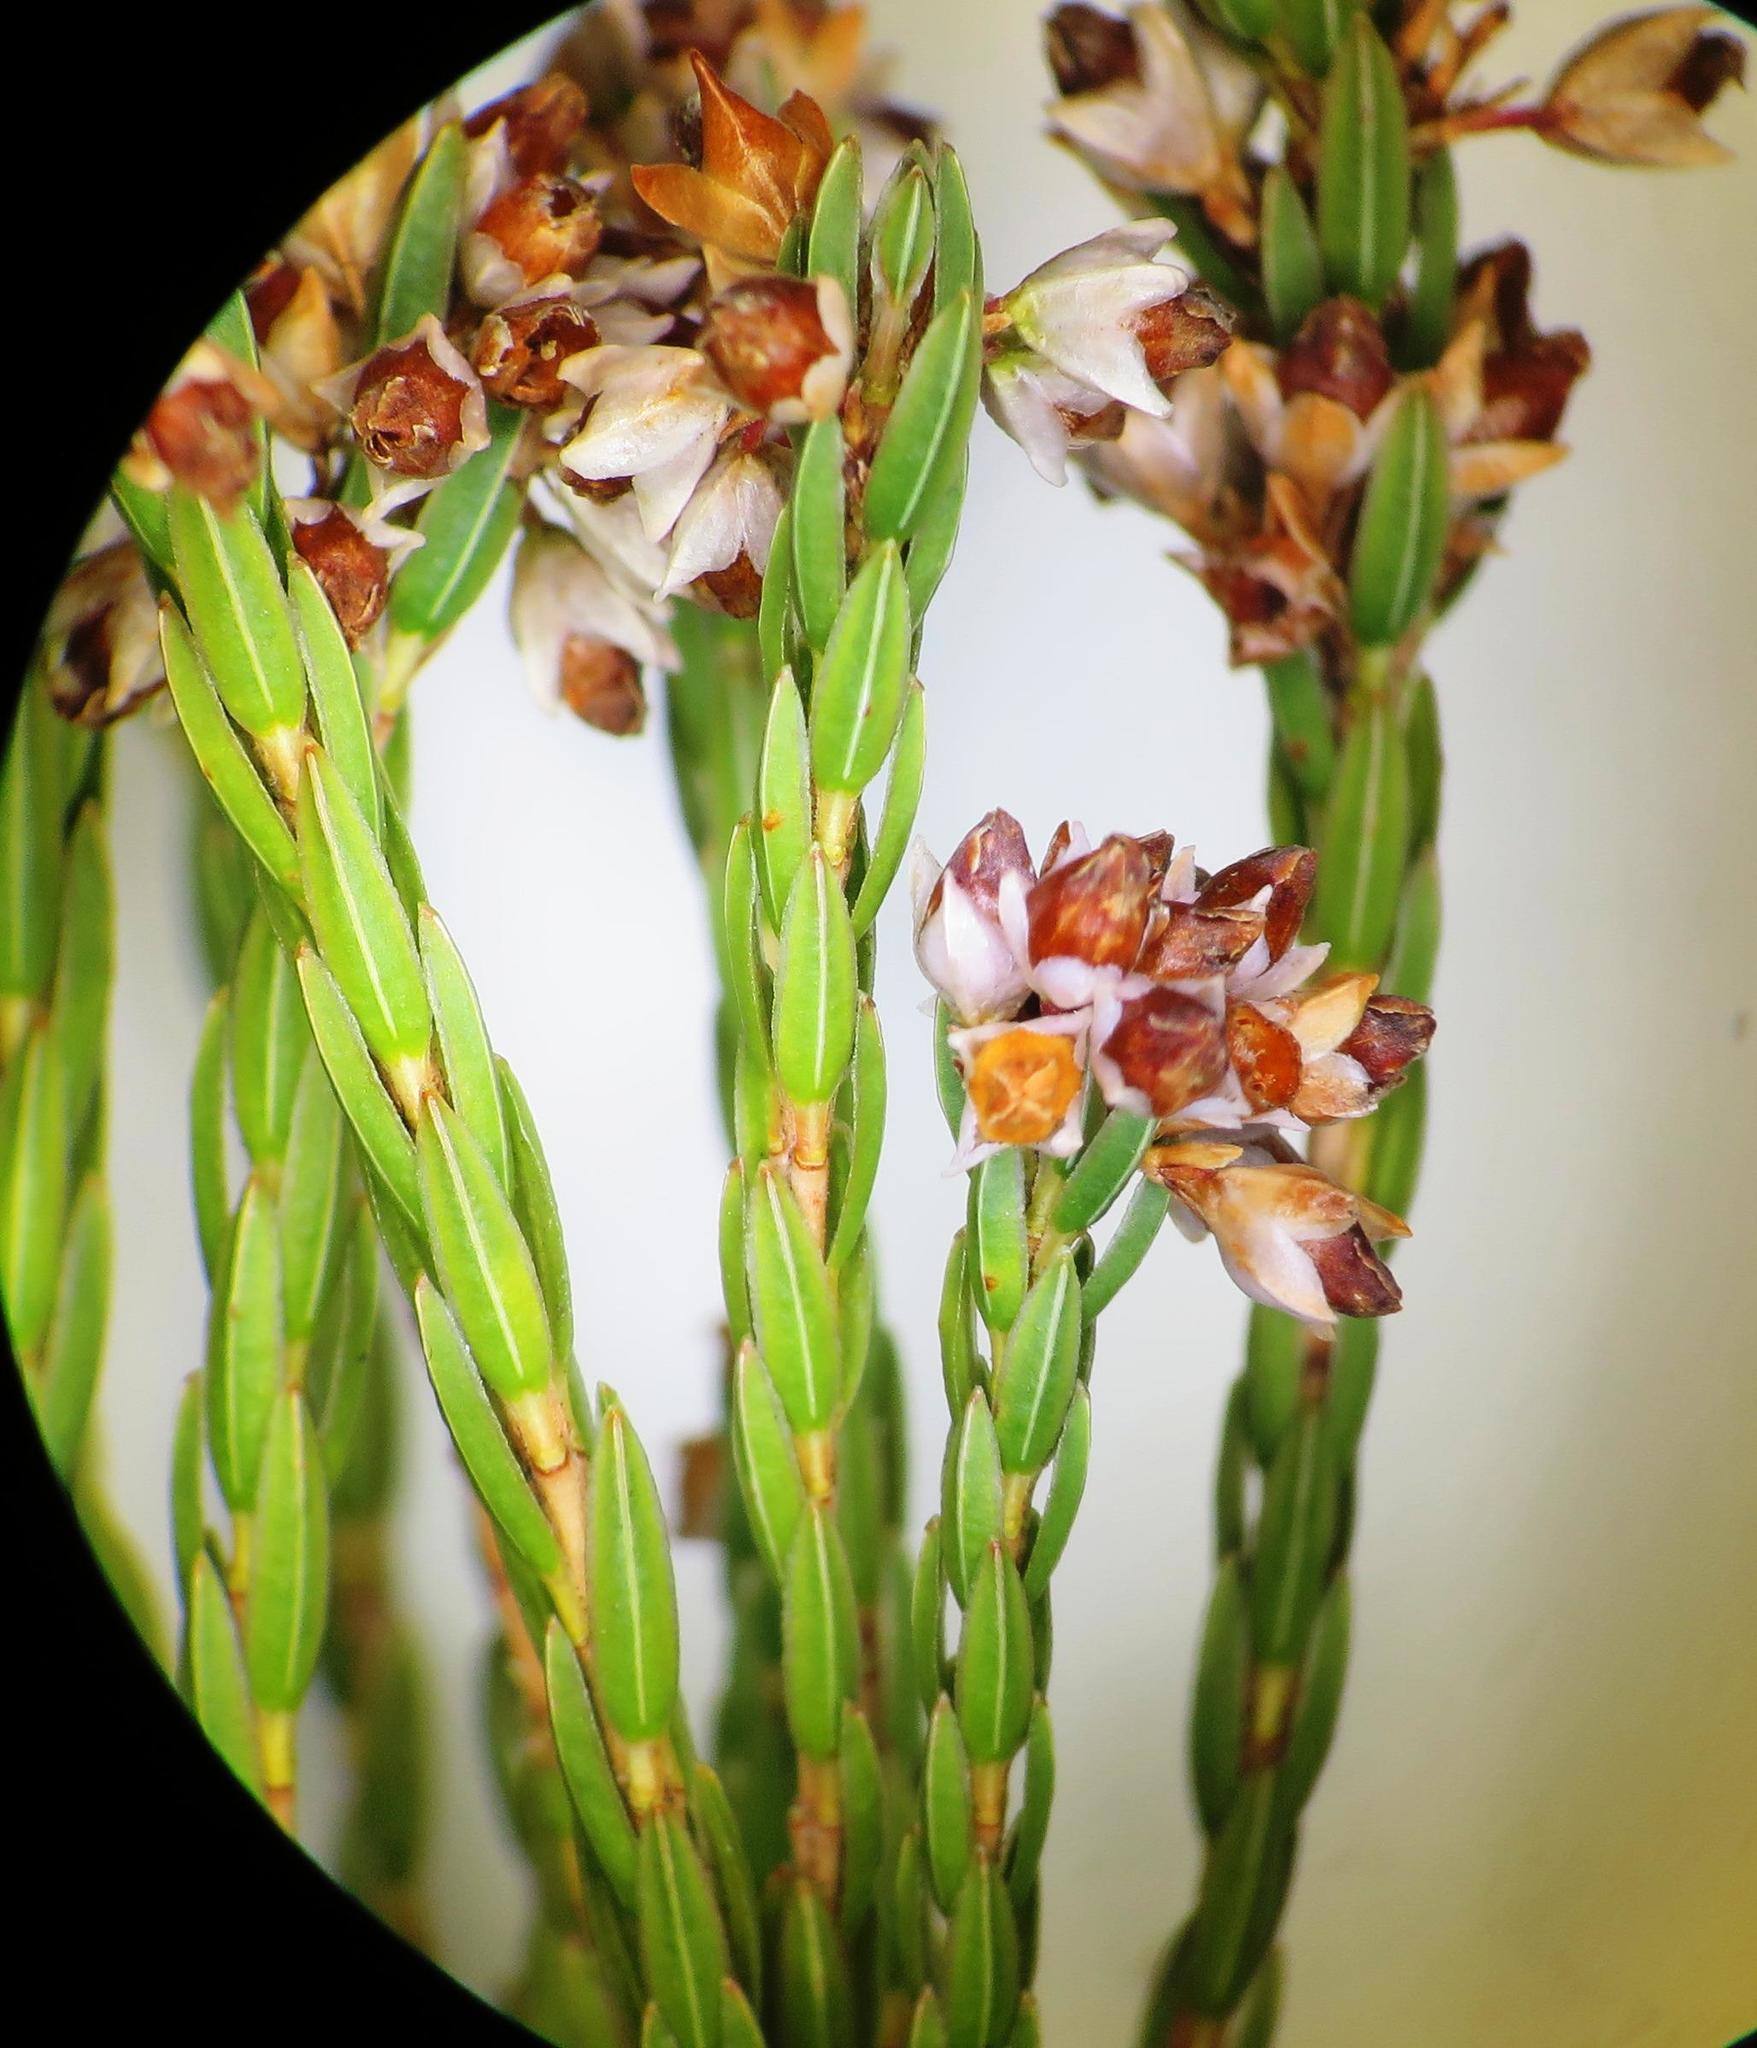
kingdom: Plantae
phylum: Tracheophyta
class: Magnoliopsida
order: Ericales
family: Ericaceae
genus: Erica
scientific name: Erica articularis
